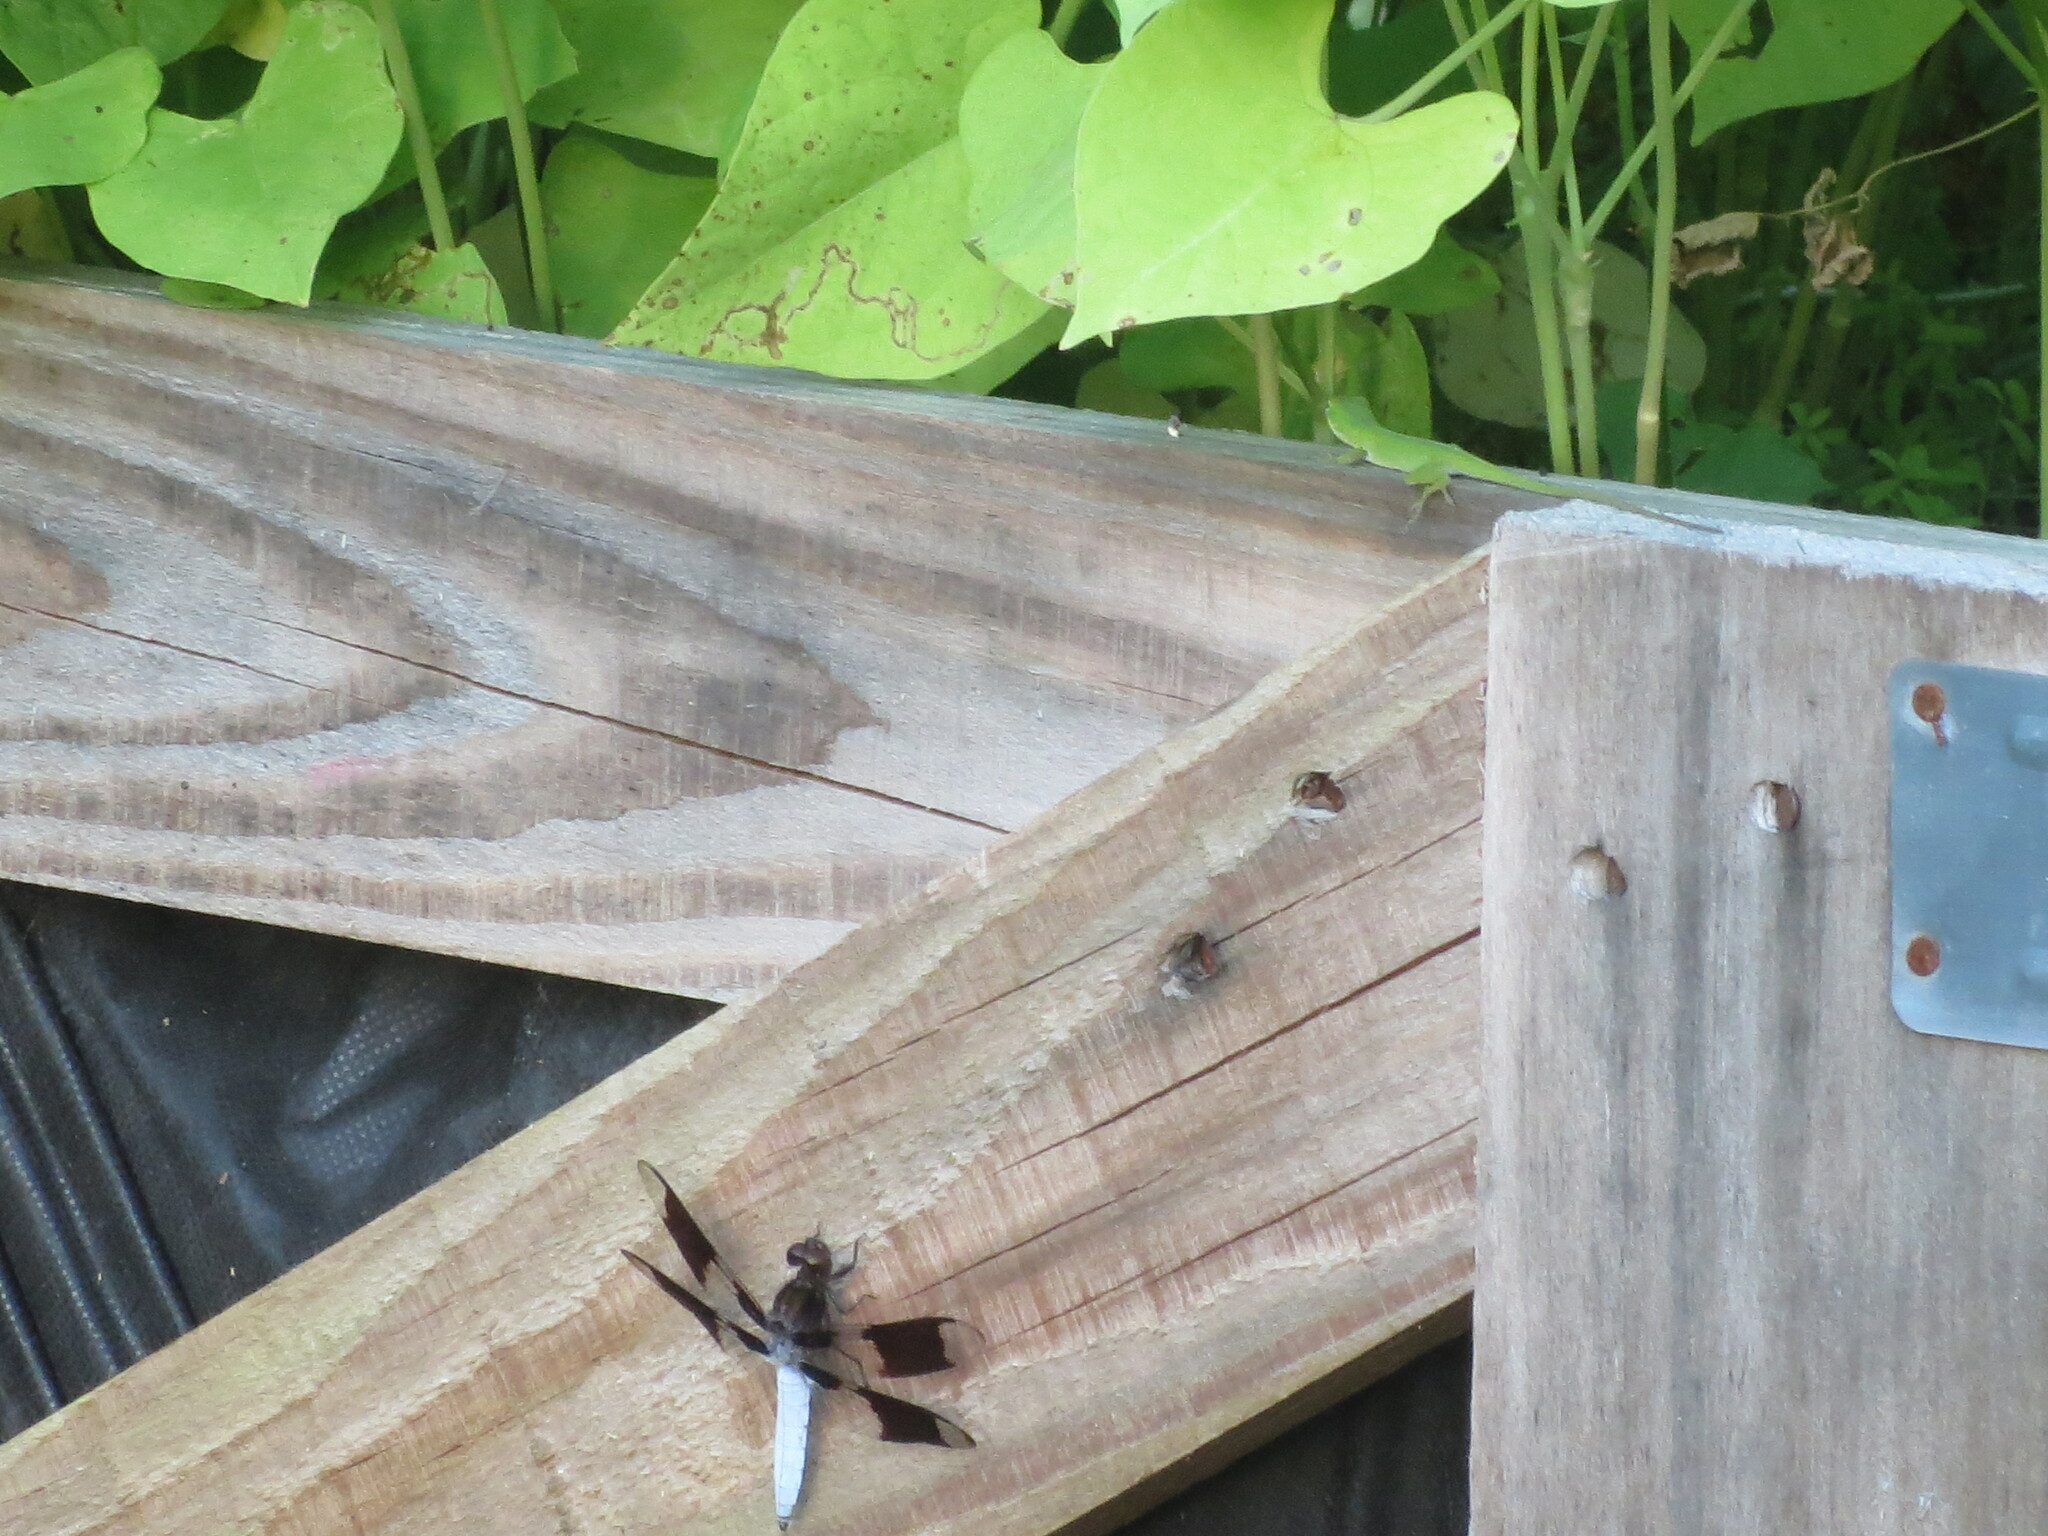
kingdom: Animalia
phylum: Chordata
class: Squamata
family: Dactyloidae
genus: Anolis
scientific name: Anolis carolinensis
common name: Green anole
